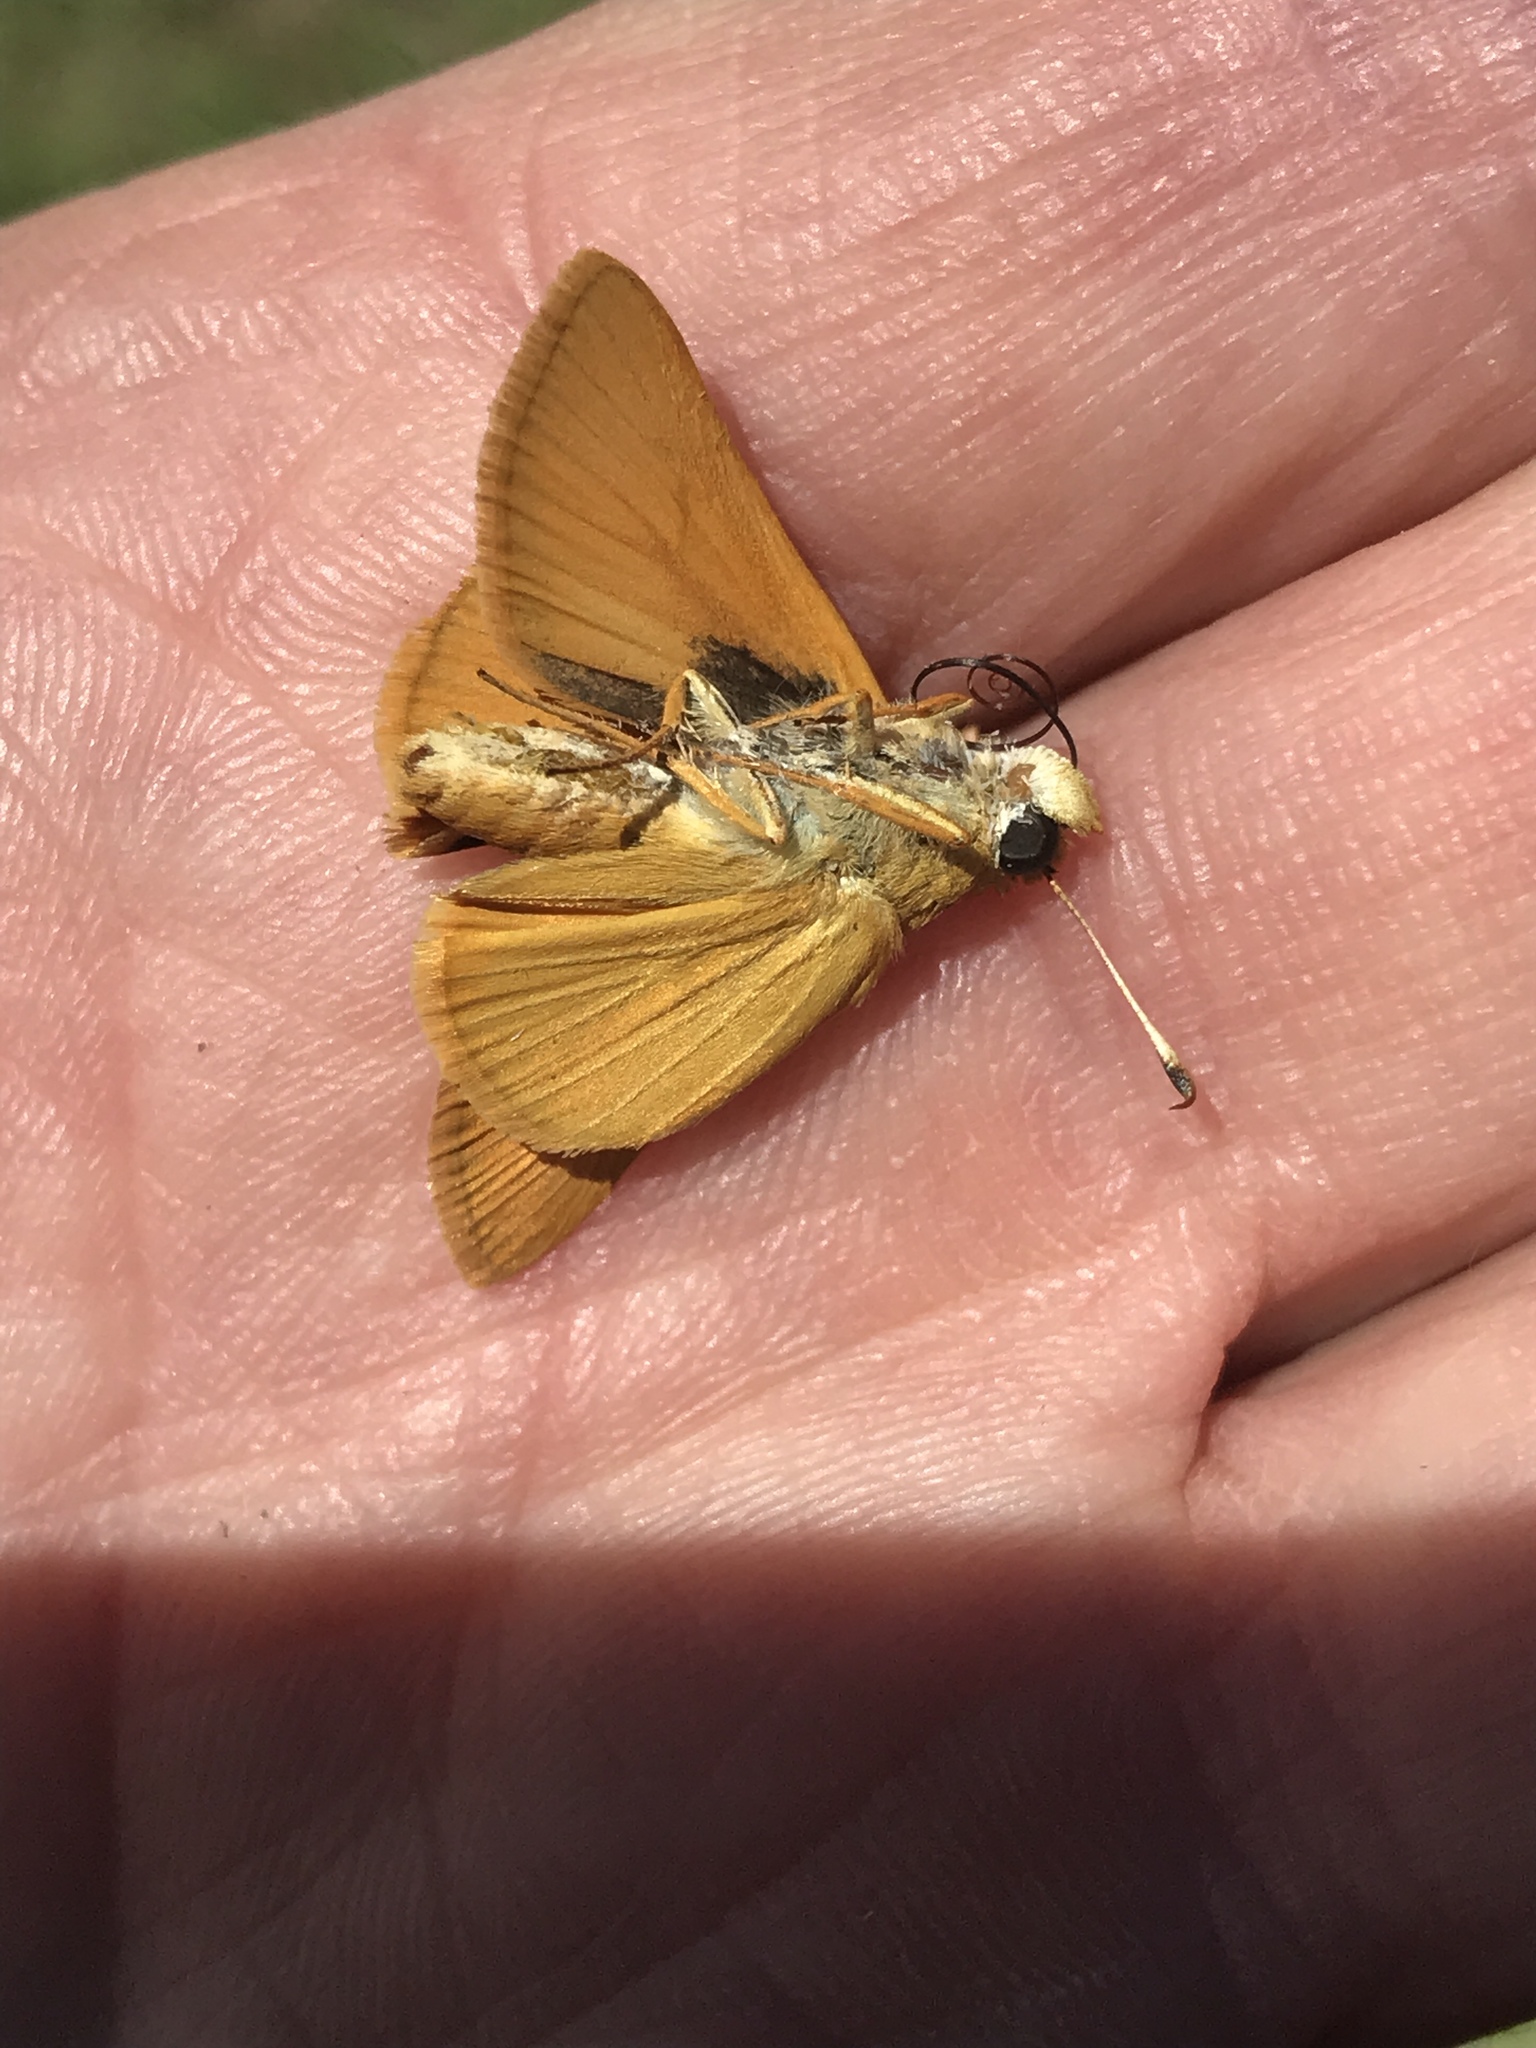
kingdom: Animalia
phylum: Arthropoda
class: Insecta
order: Lepidoptera
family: Hesperiidae
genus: Atrytone
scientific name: Atrytone delaware
